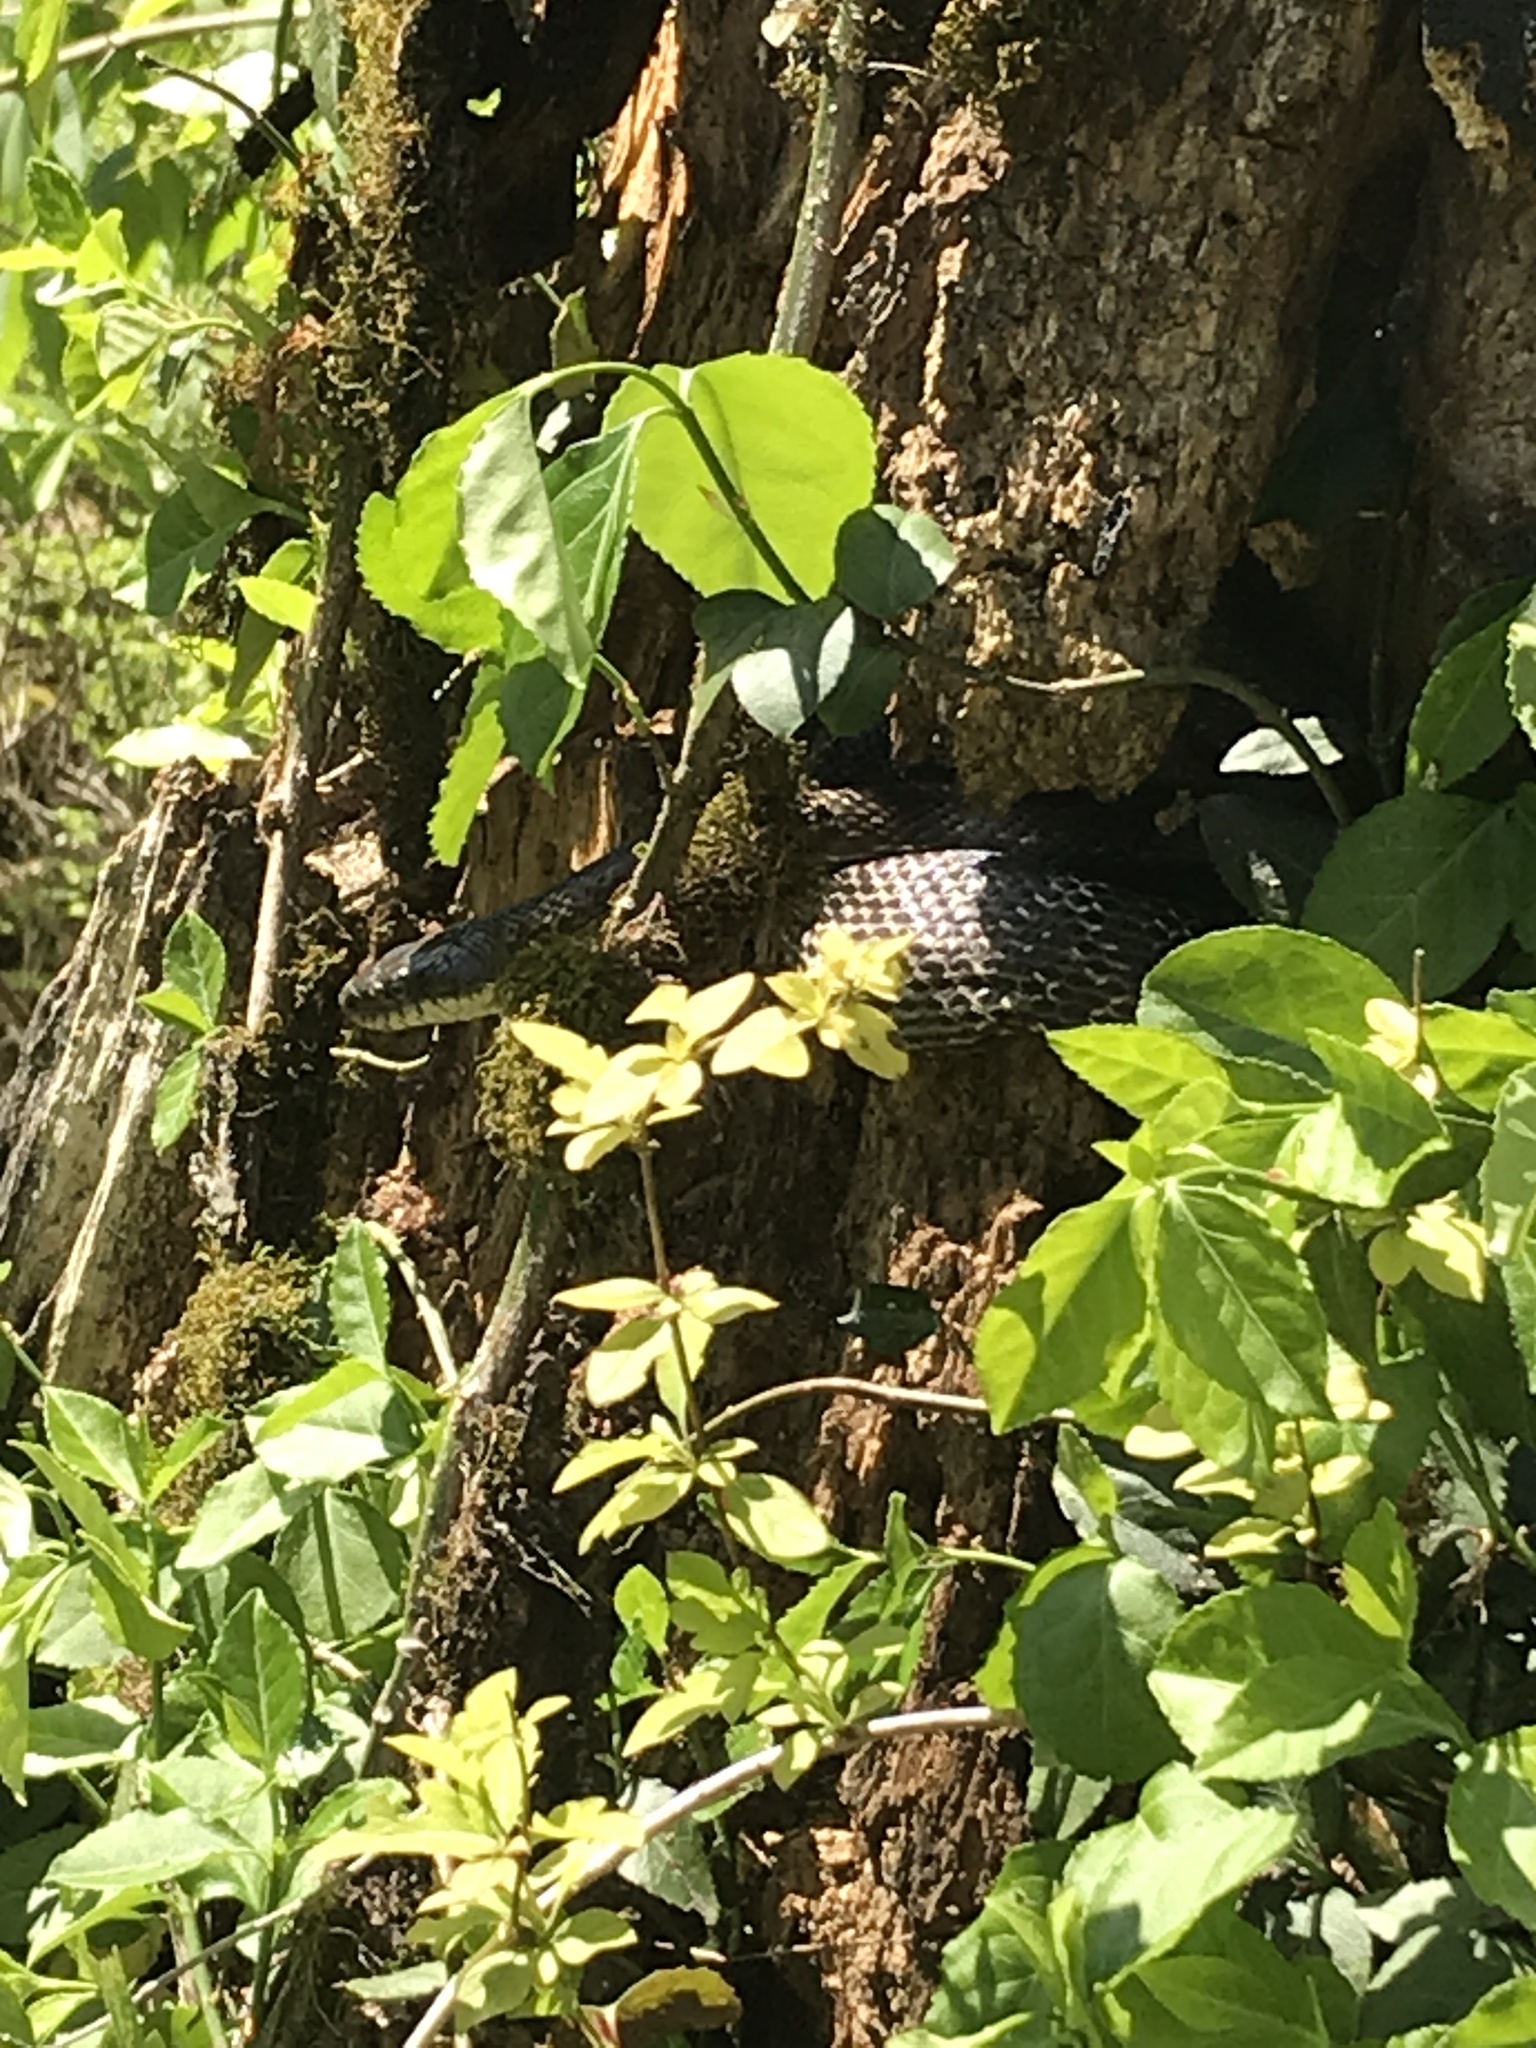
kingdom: Animalia
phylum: Chordata
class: Squamata
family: Colubridae
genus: Pantherophis
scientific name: Pantherophis spiloides
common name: Gray rat snake
